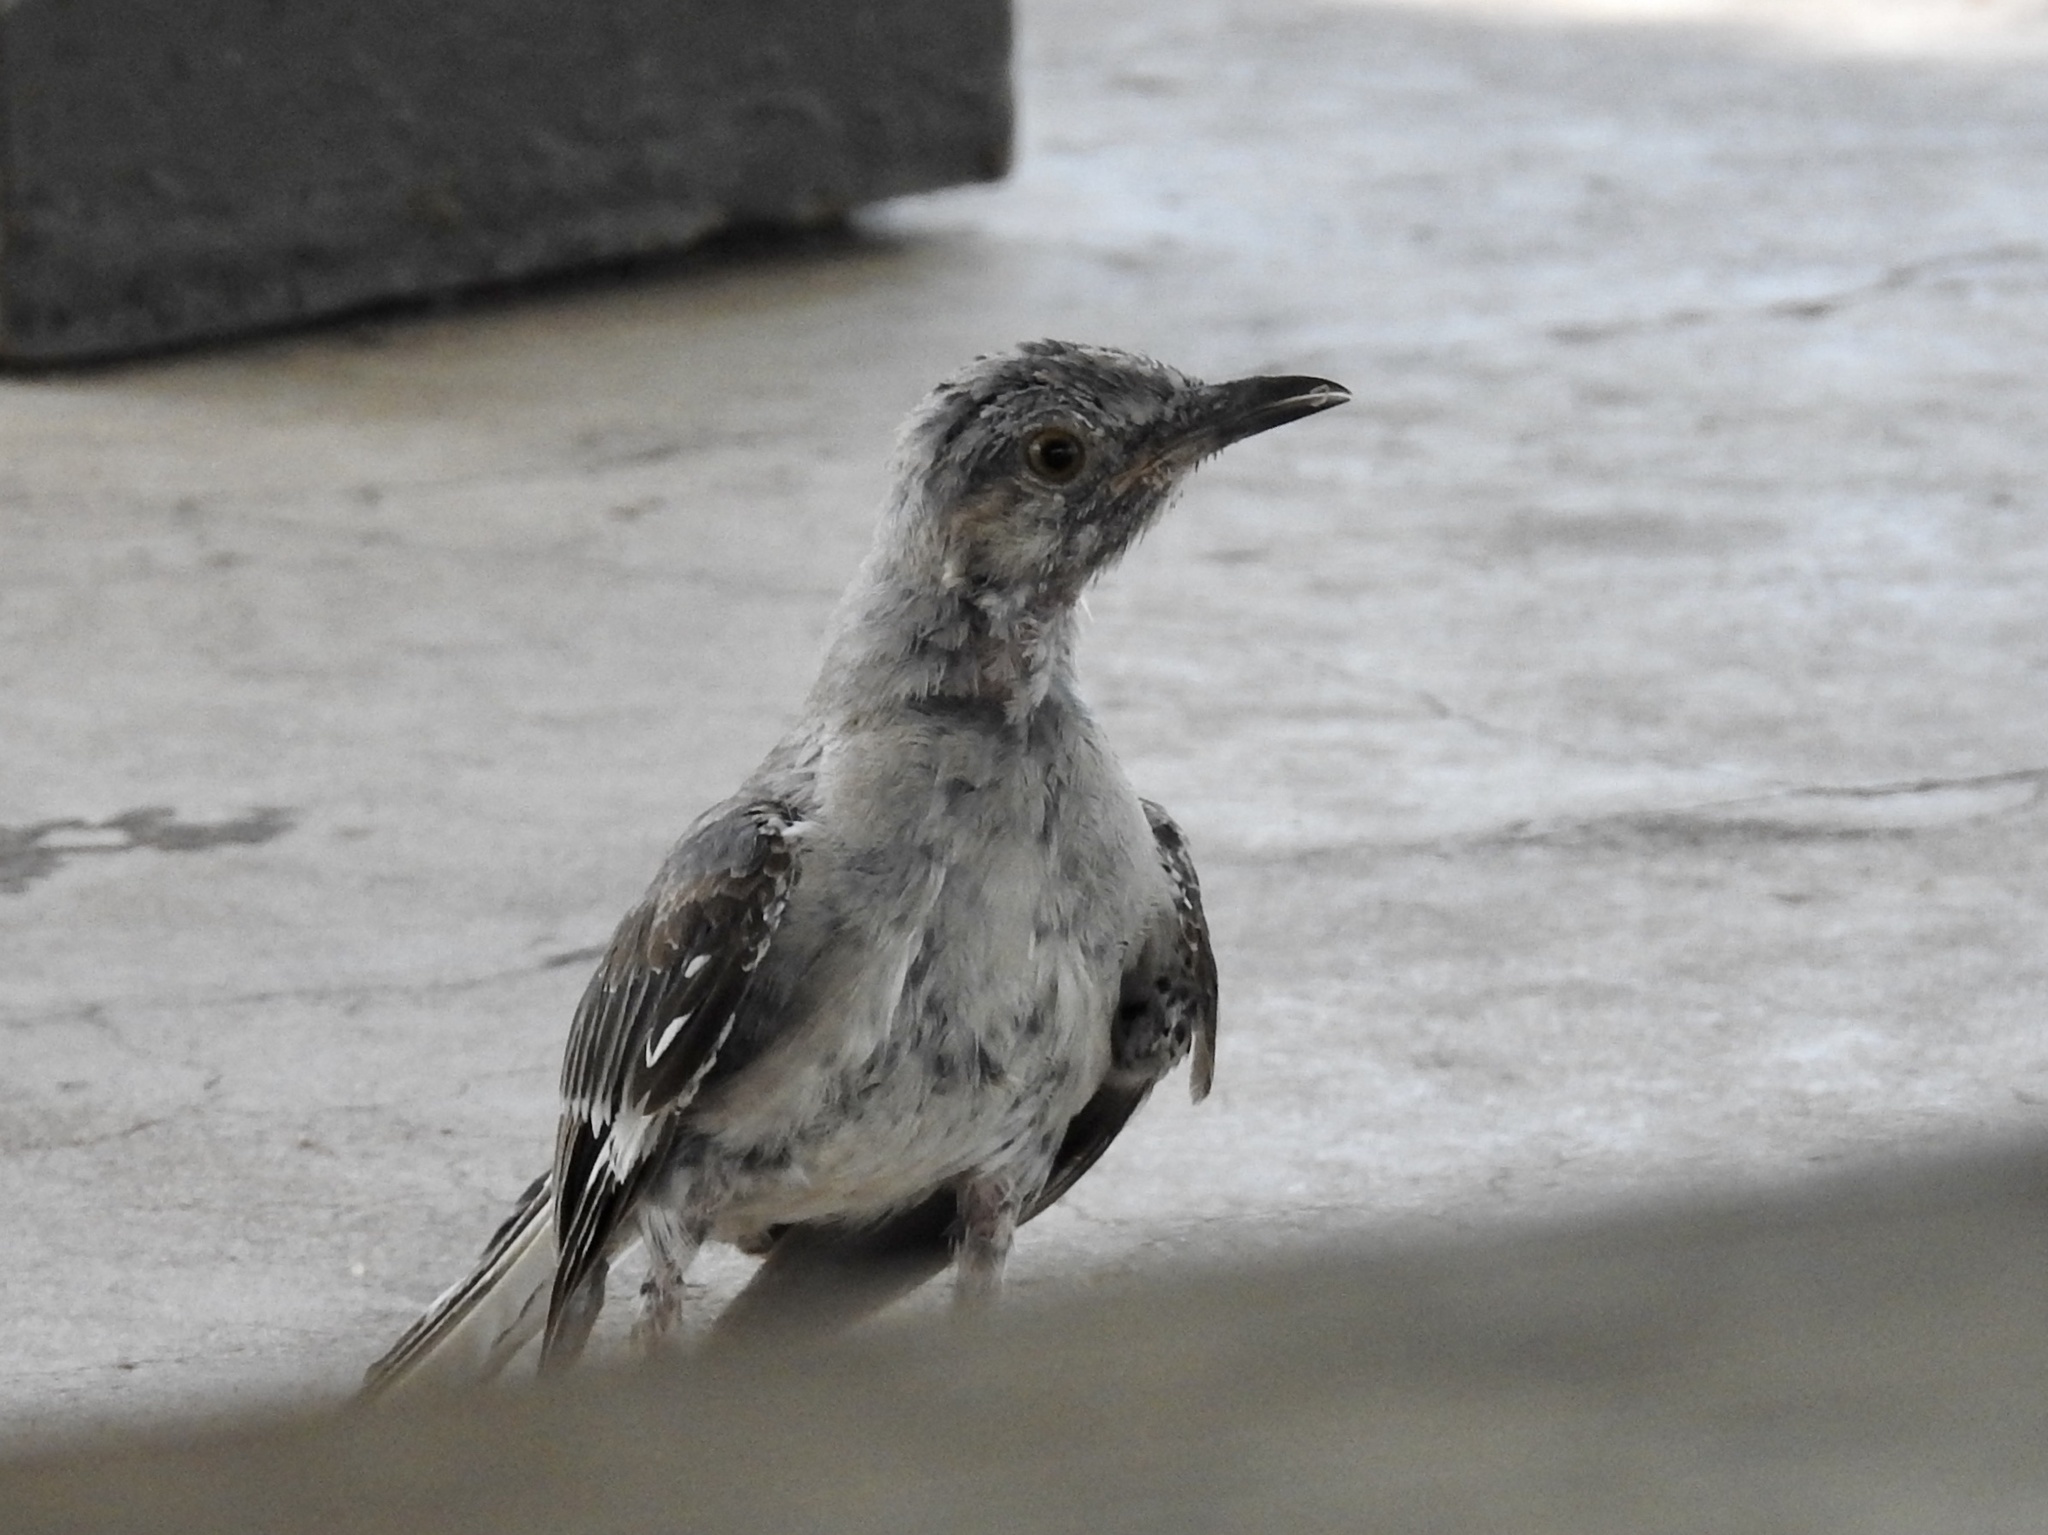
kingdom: Animalia
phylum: Chordata
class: Aves
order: Passeriformes
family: Mimidae
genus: Mimus
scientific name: Mimus polyglottos
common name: Northern mockingbird
